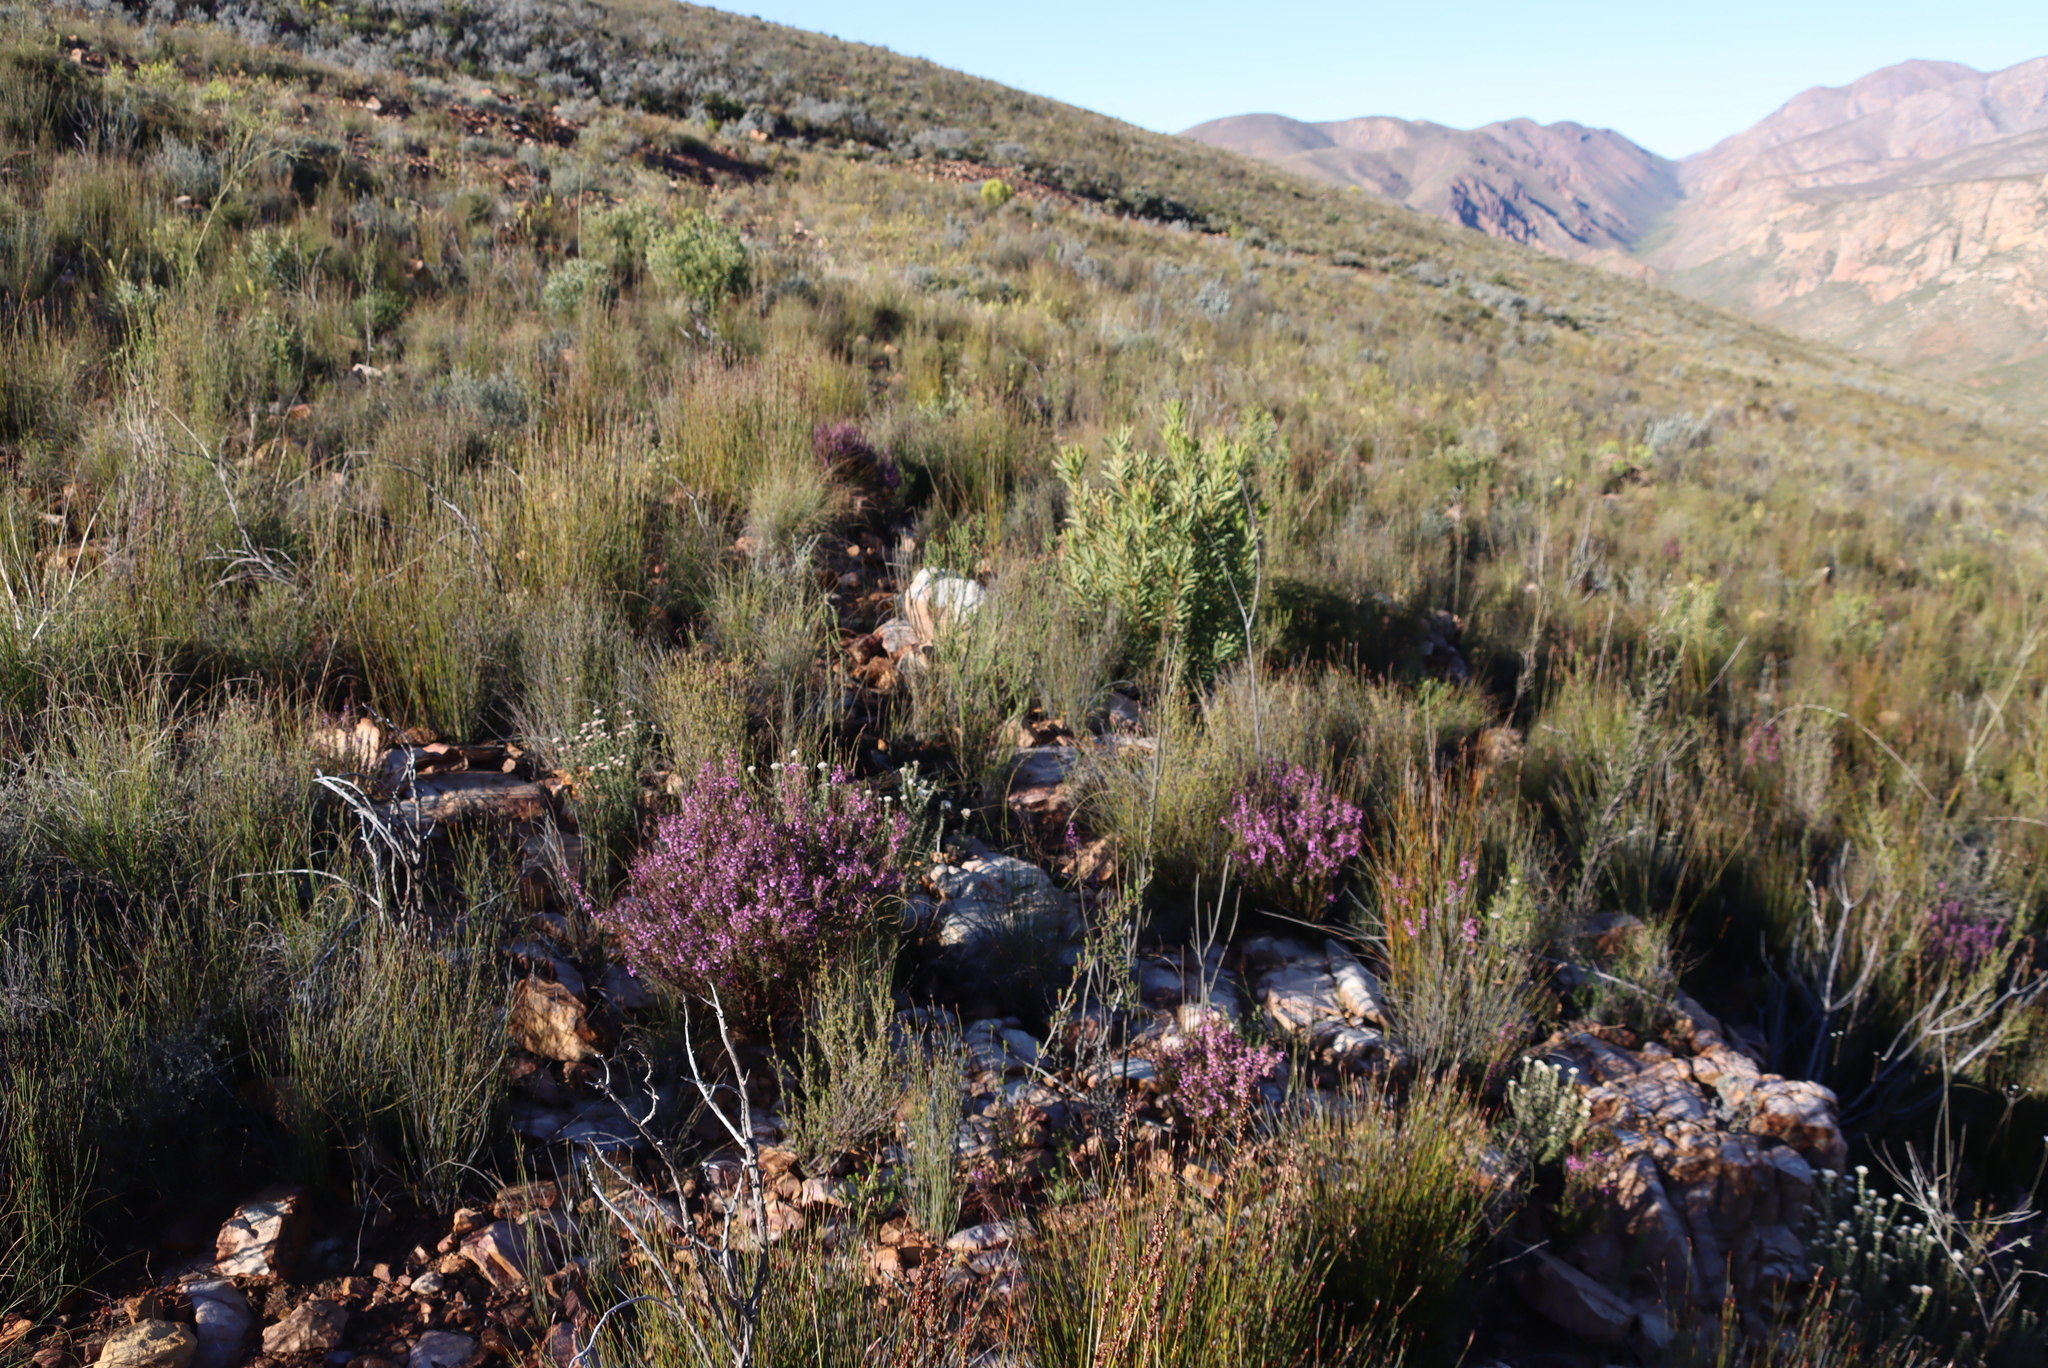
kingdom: Plantae
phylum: Tracheophyta
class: Magnoliopsida
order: Fabales
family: Polygalaceae
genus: Muraltia
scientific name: Muraltia juniperifolia
